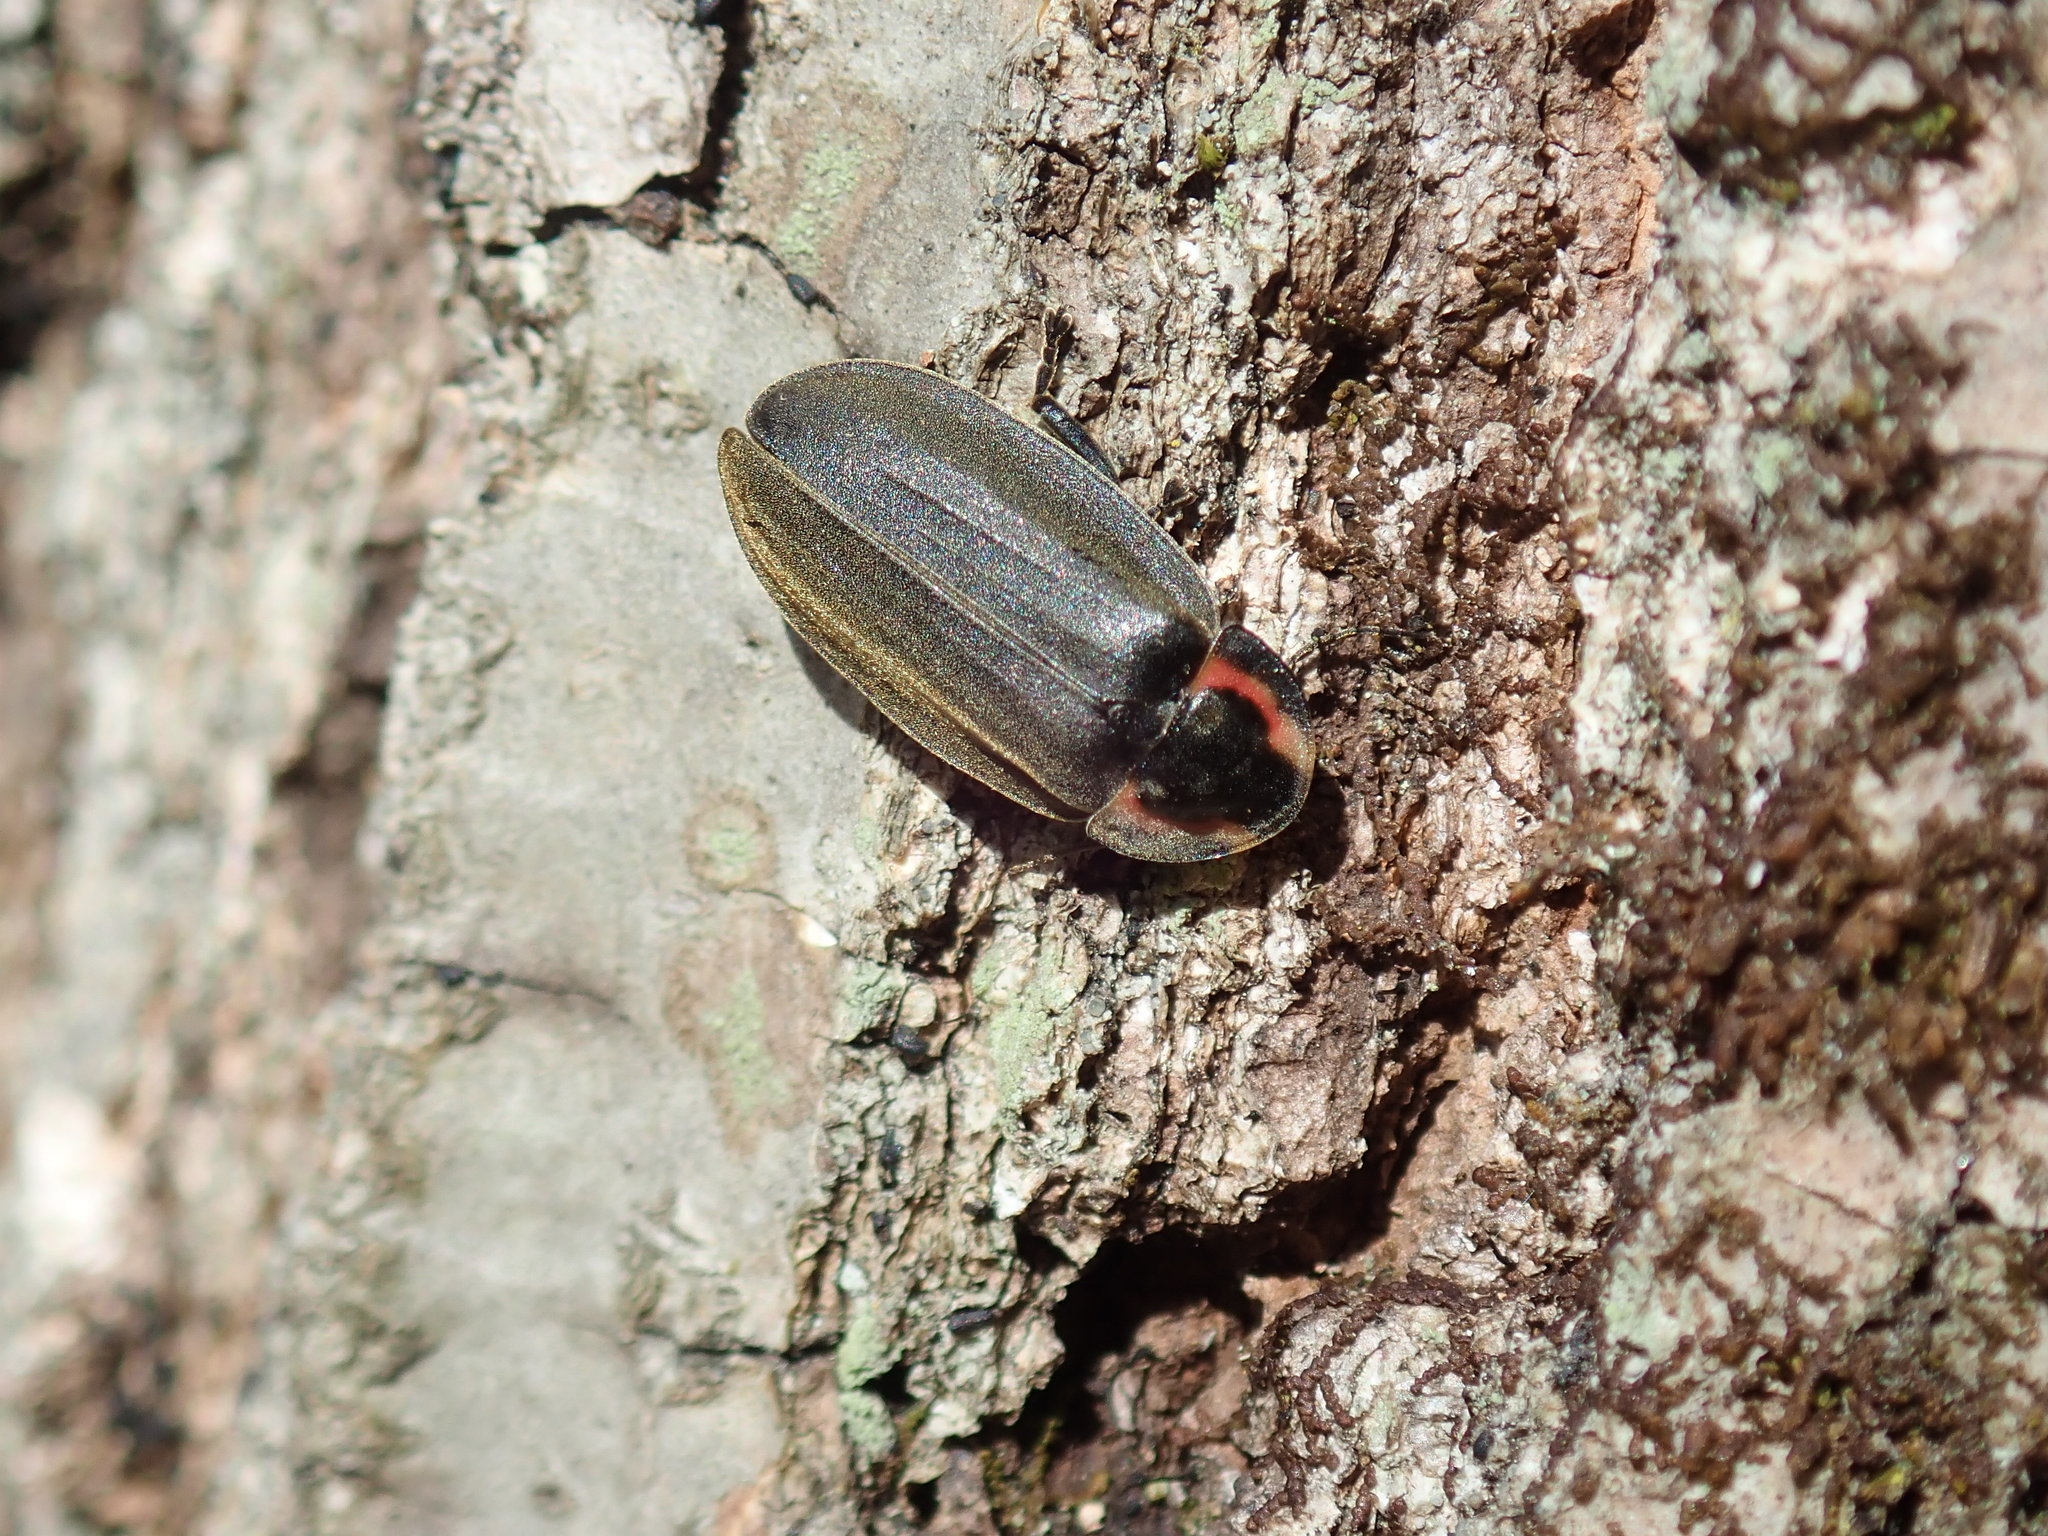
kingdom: Animalia
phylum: Arthropoda
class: Insecta
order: Coleoptera
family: Lampyridae
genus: Photinus
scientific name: Photinus corrusca
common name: Winter firefly
